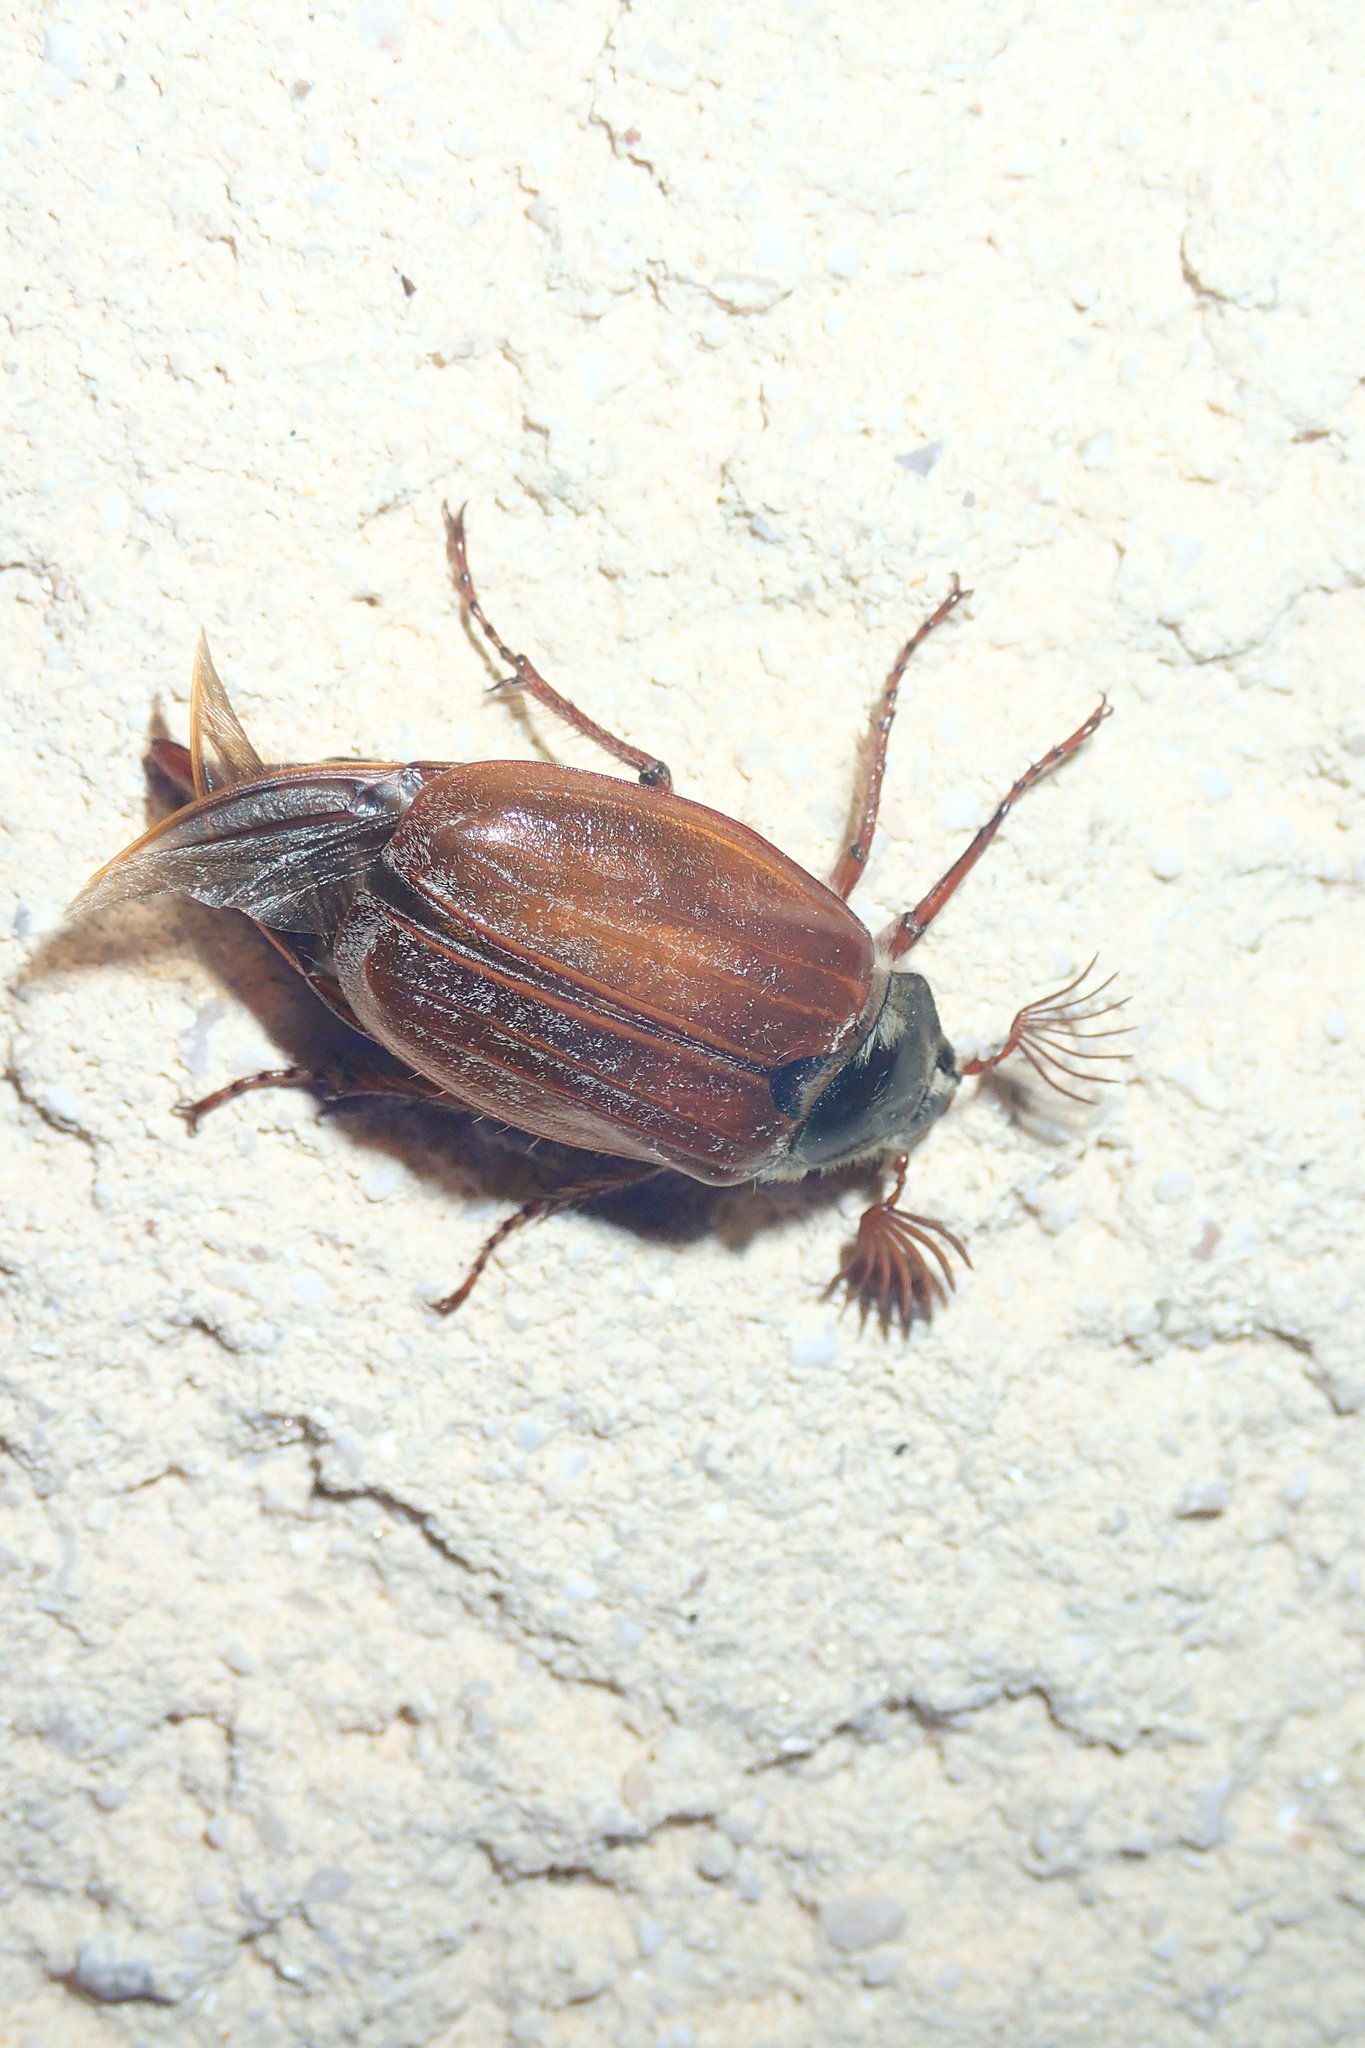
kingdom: Animalia
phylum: Arthropoda
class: Insecta
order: Coleoptera
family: Scarabaeidae
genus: Melolontha
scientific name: Melolontha melolontha
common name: Cockchafer maybeetle
